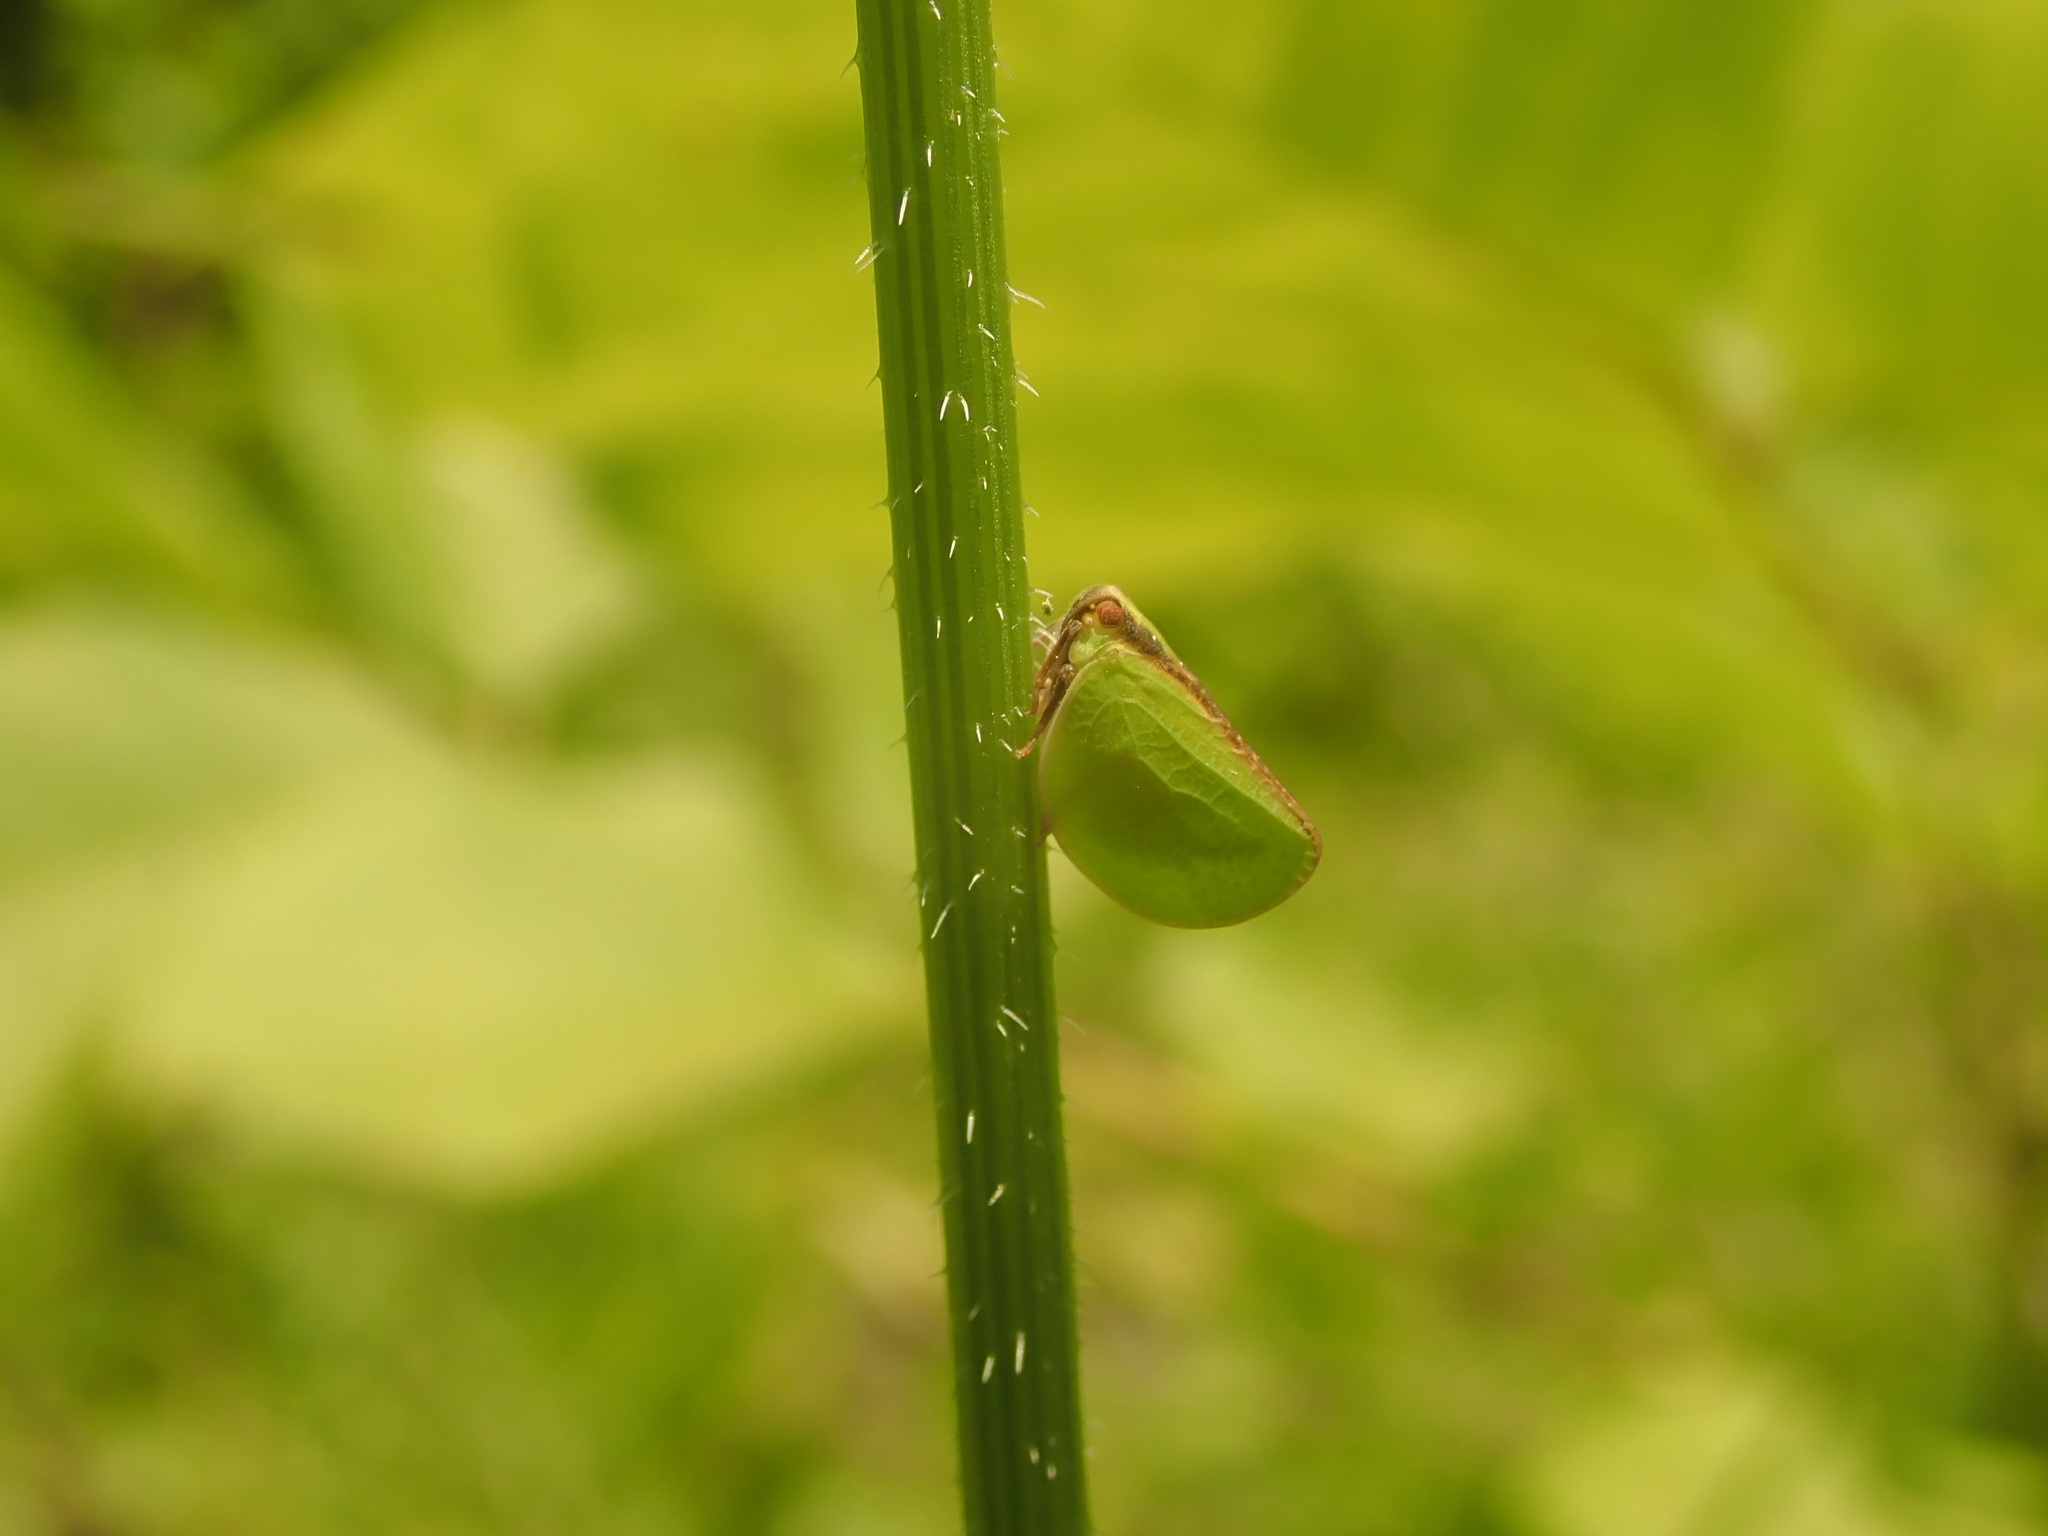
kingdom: Animalia
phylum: Arthropoda
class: Insecta
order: Hemiptera
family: Acanaloniidae
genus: Acanalonia
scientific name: Acanalonia bivittata
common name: Two-striped planthopper
